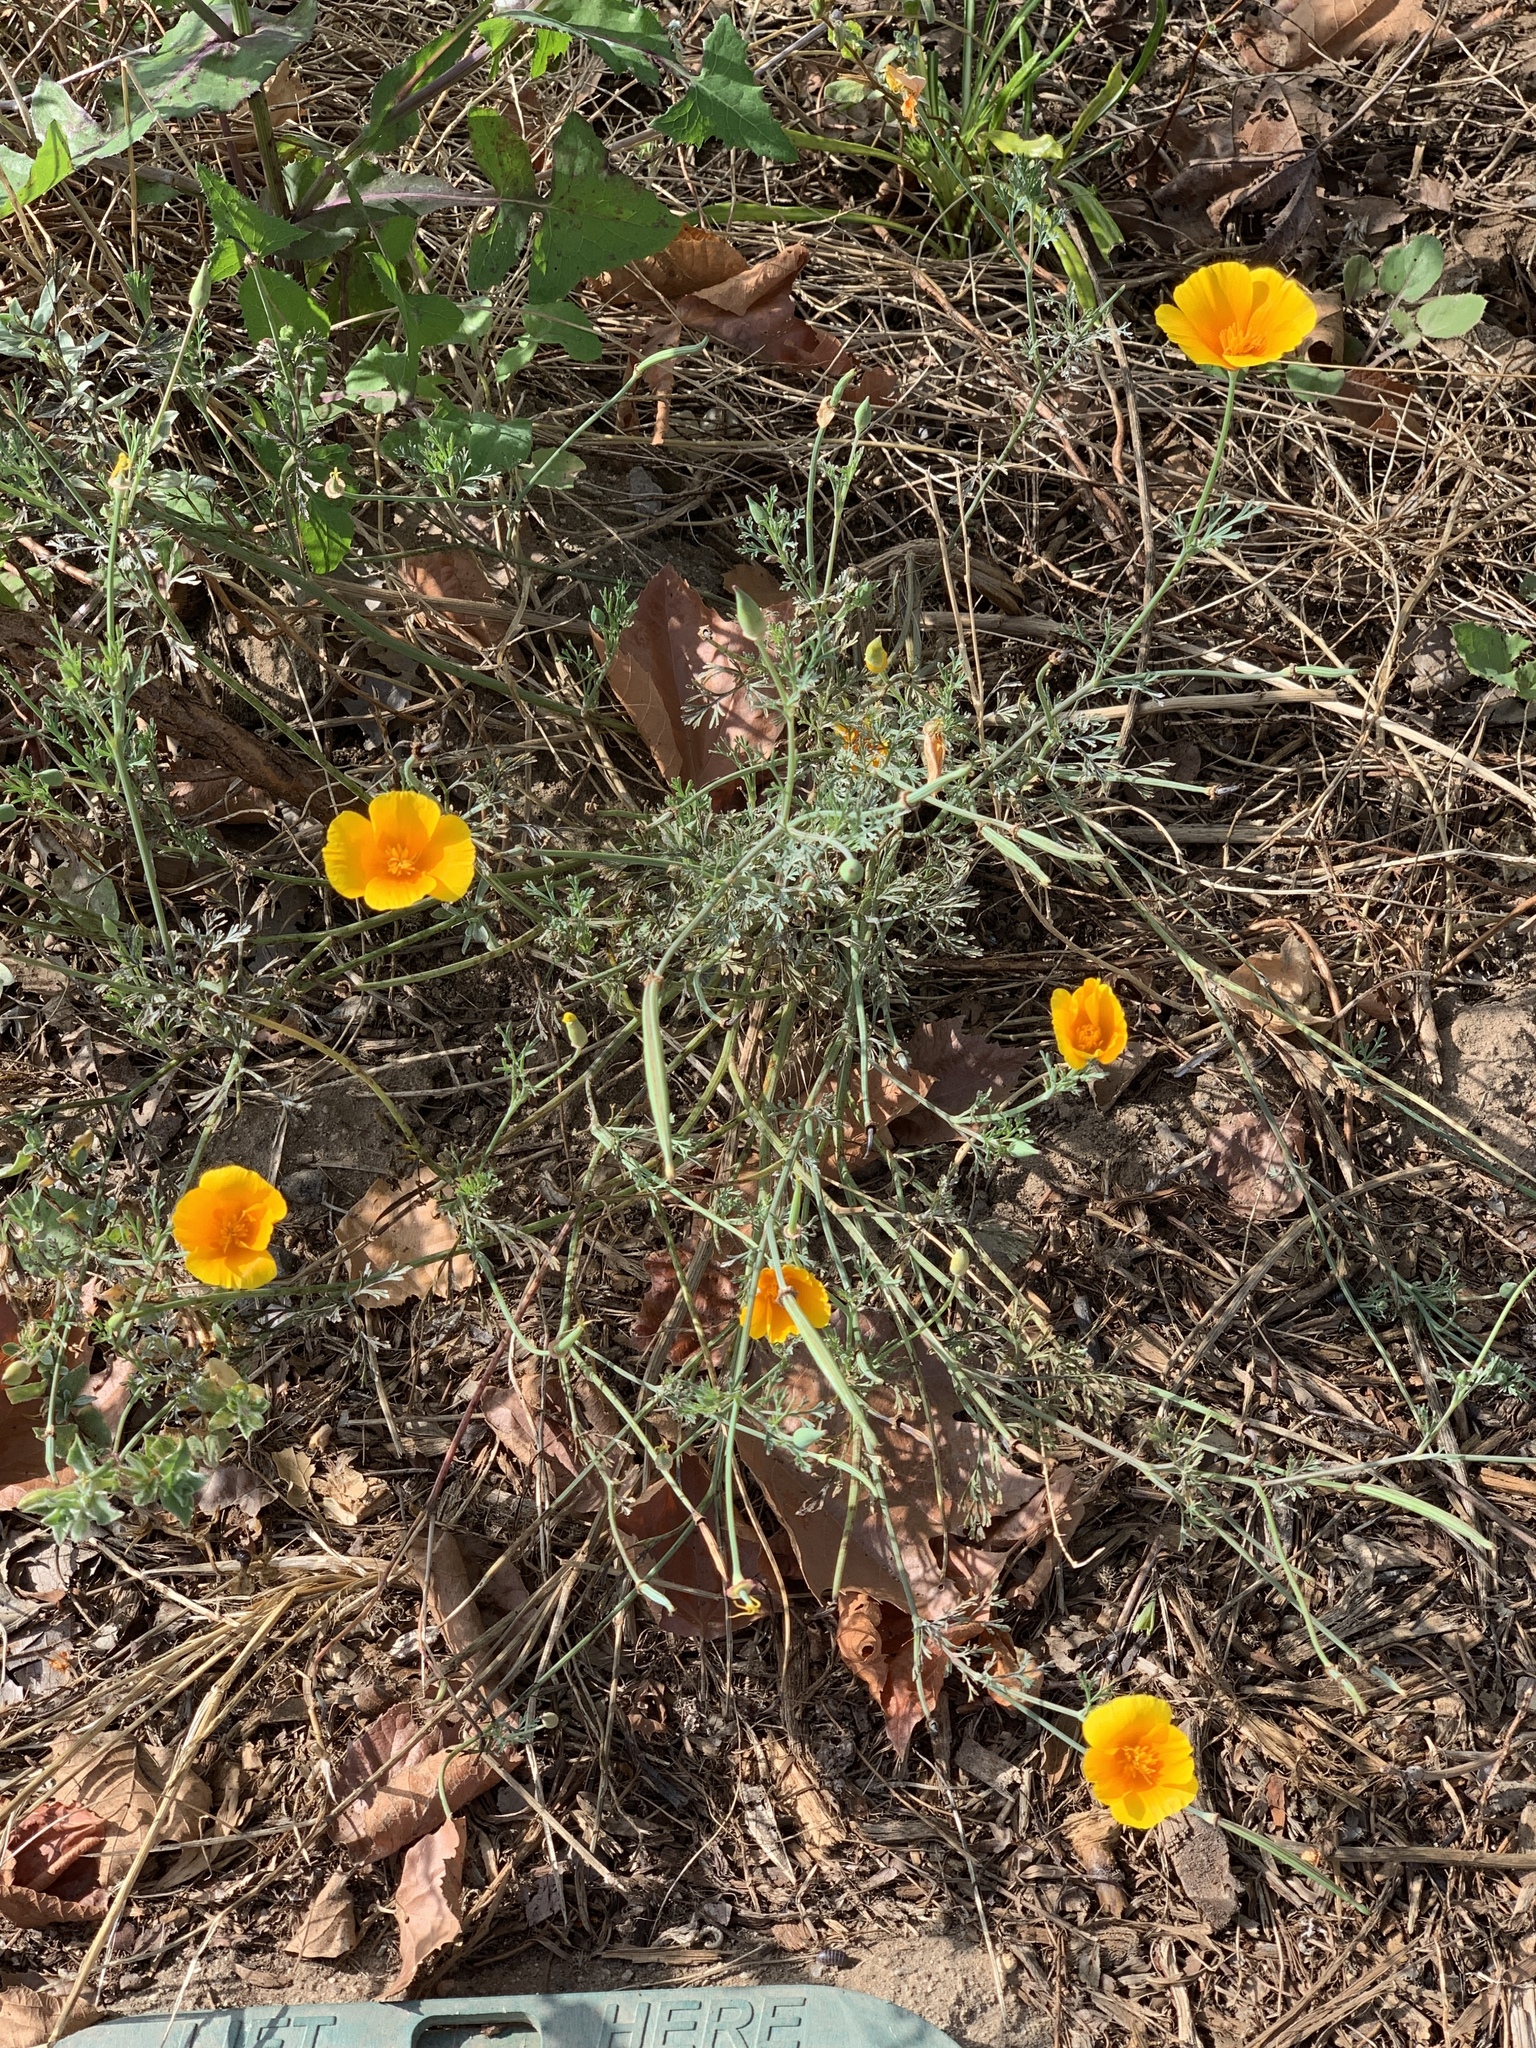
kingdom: Plantae
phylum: Tracheophyta
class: Magnoliopsida
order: Ranunculales
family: Papaveraceae
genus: Eschscholzia
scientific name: Eschscholzia californica
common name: California poppy
